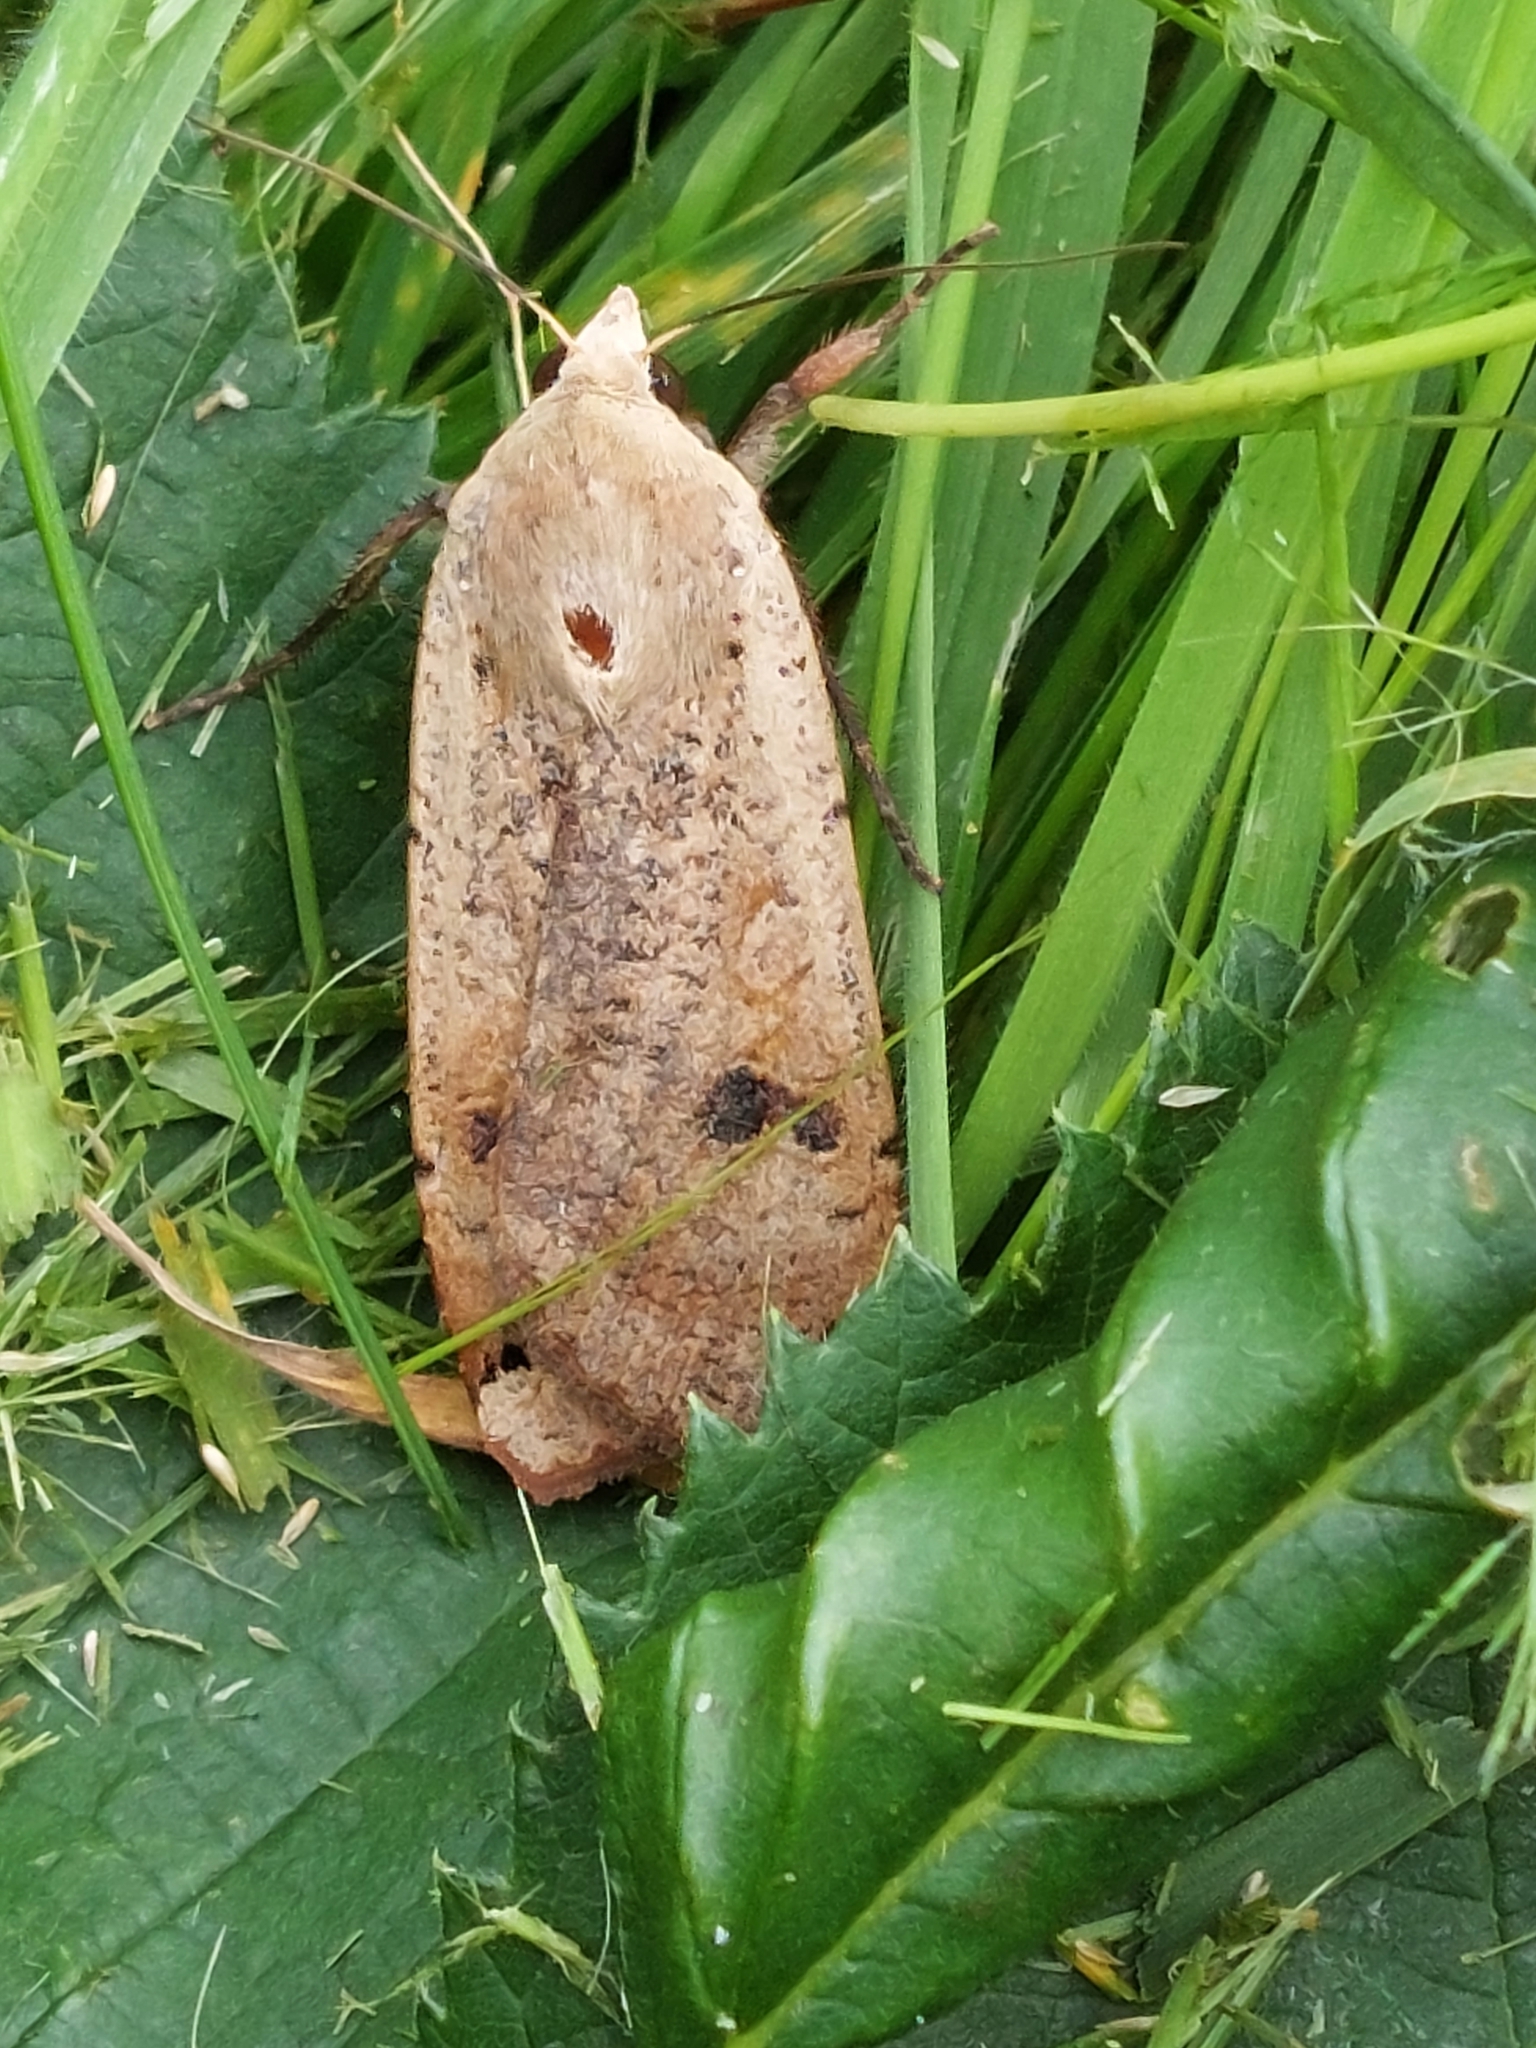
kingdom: Animalia
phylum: Arthropoda
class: Insecta
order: Lepidoptera
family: Noctuidae
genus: Noctua
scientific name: Noctua pronuba
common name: Large yellow underwing
